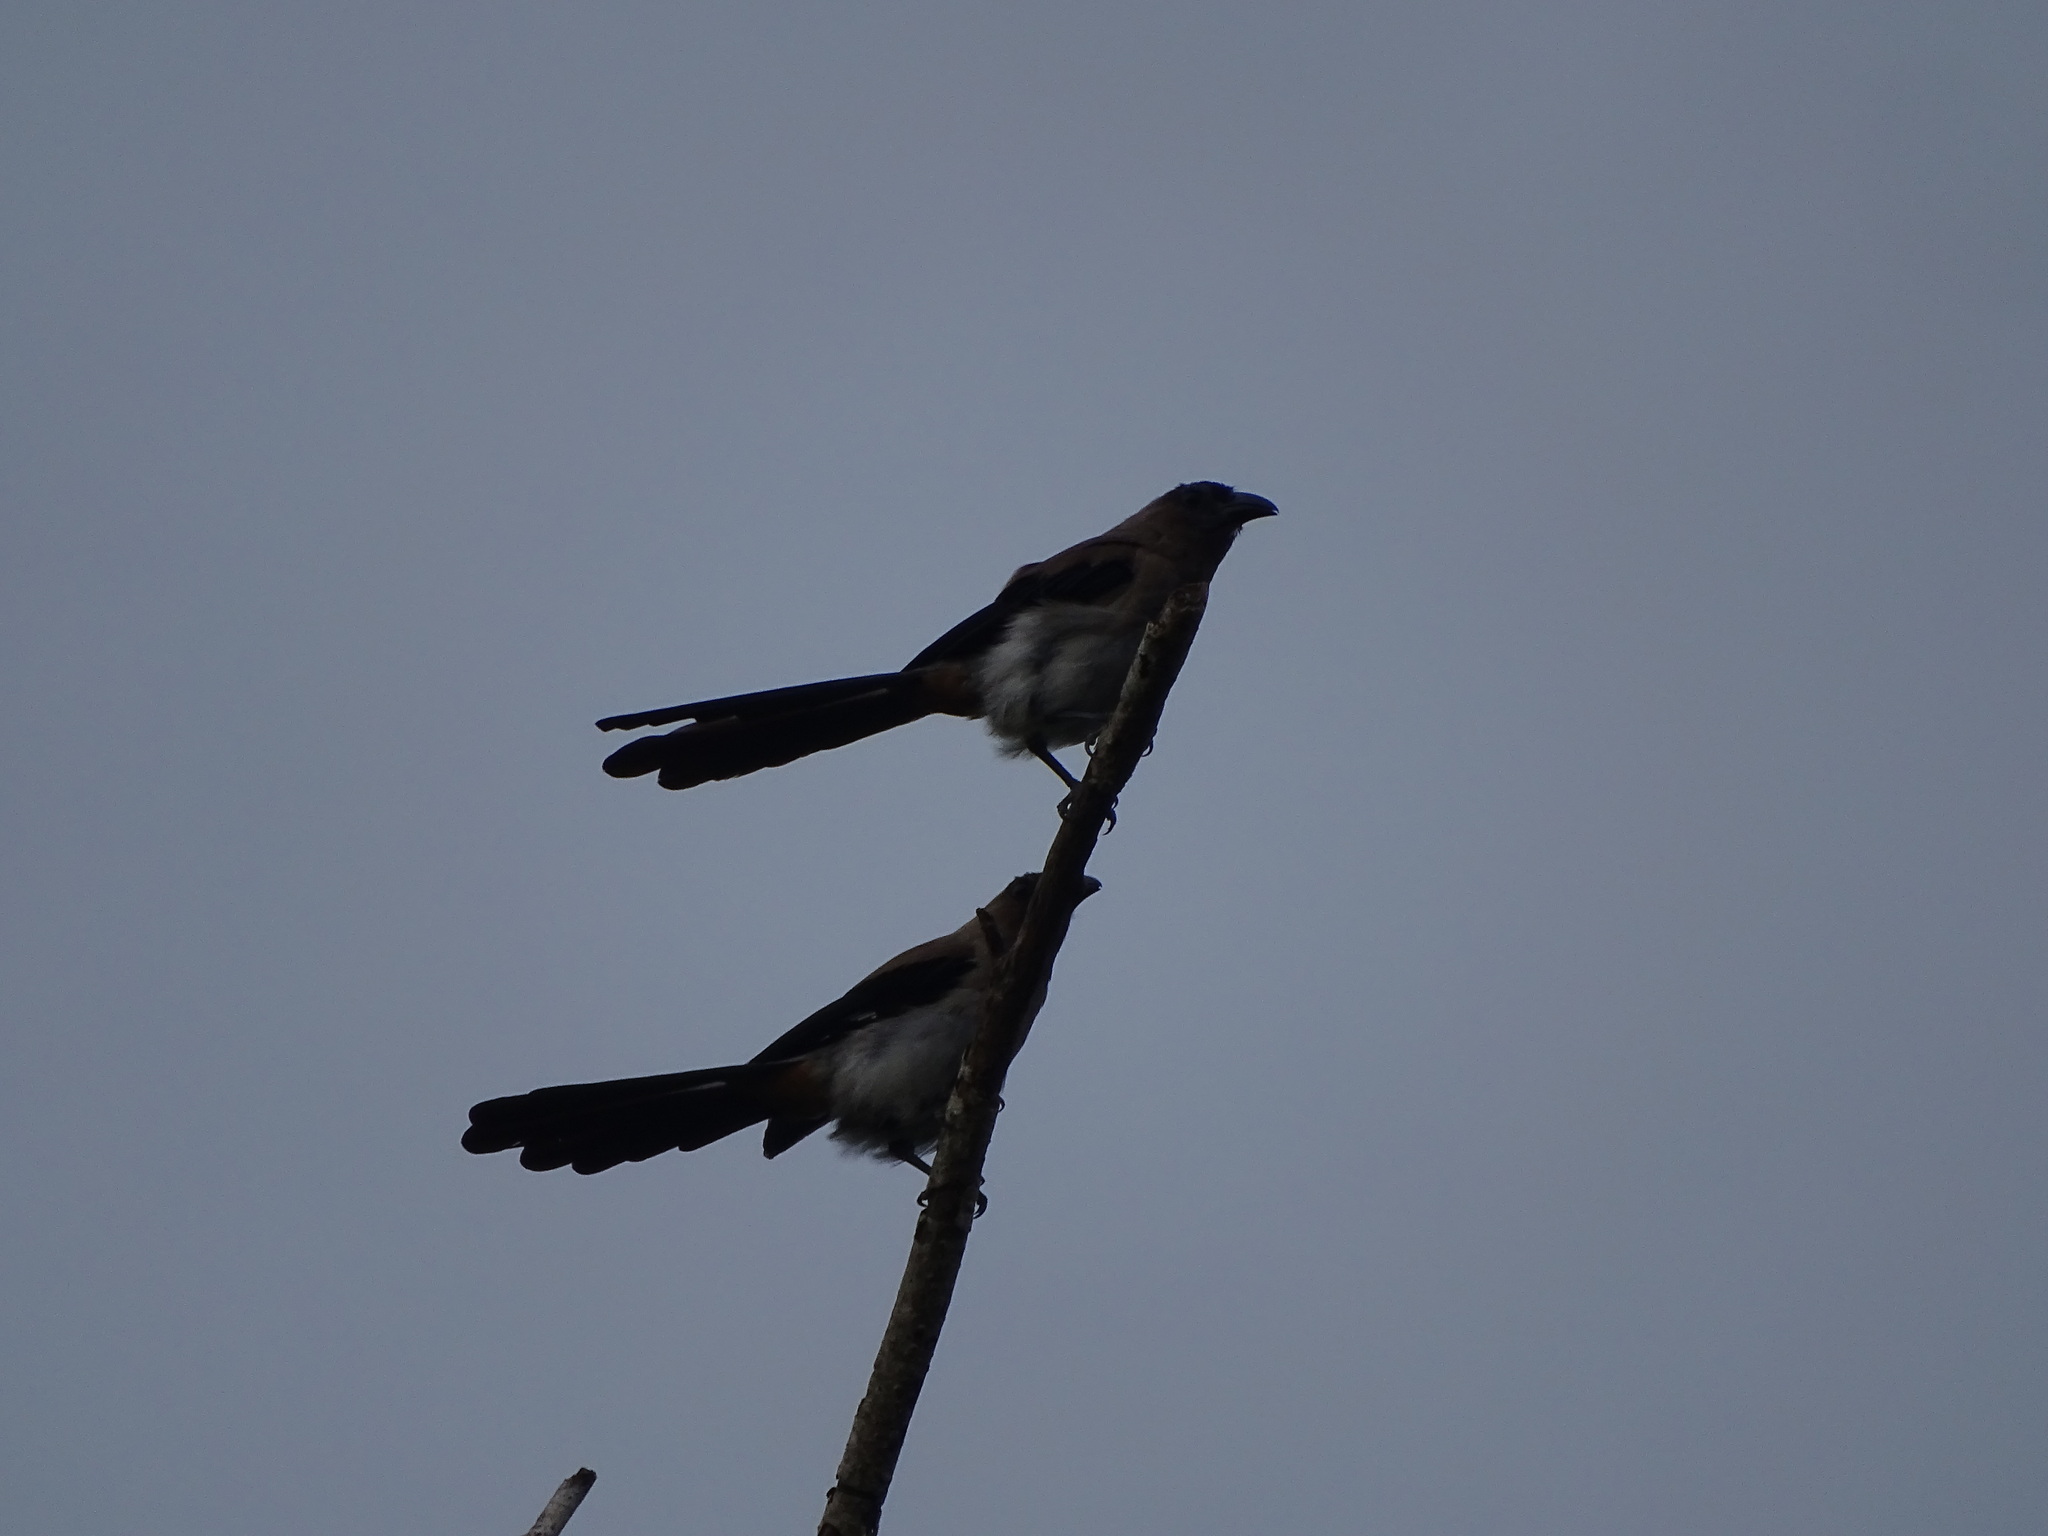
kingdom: Animalia
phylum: Chordata
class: Aves
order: Passeriformes
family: Corvidae
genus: Dendrocitta
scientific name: Dendrocitta formosae
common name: Grey treepie
